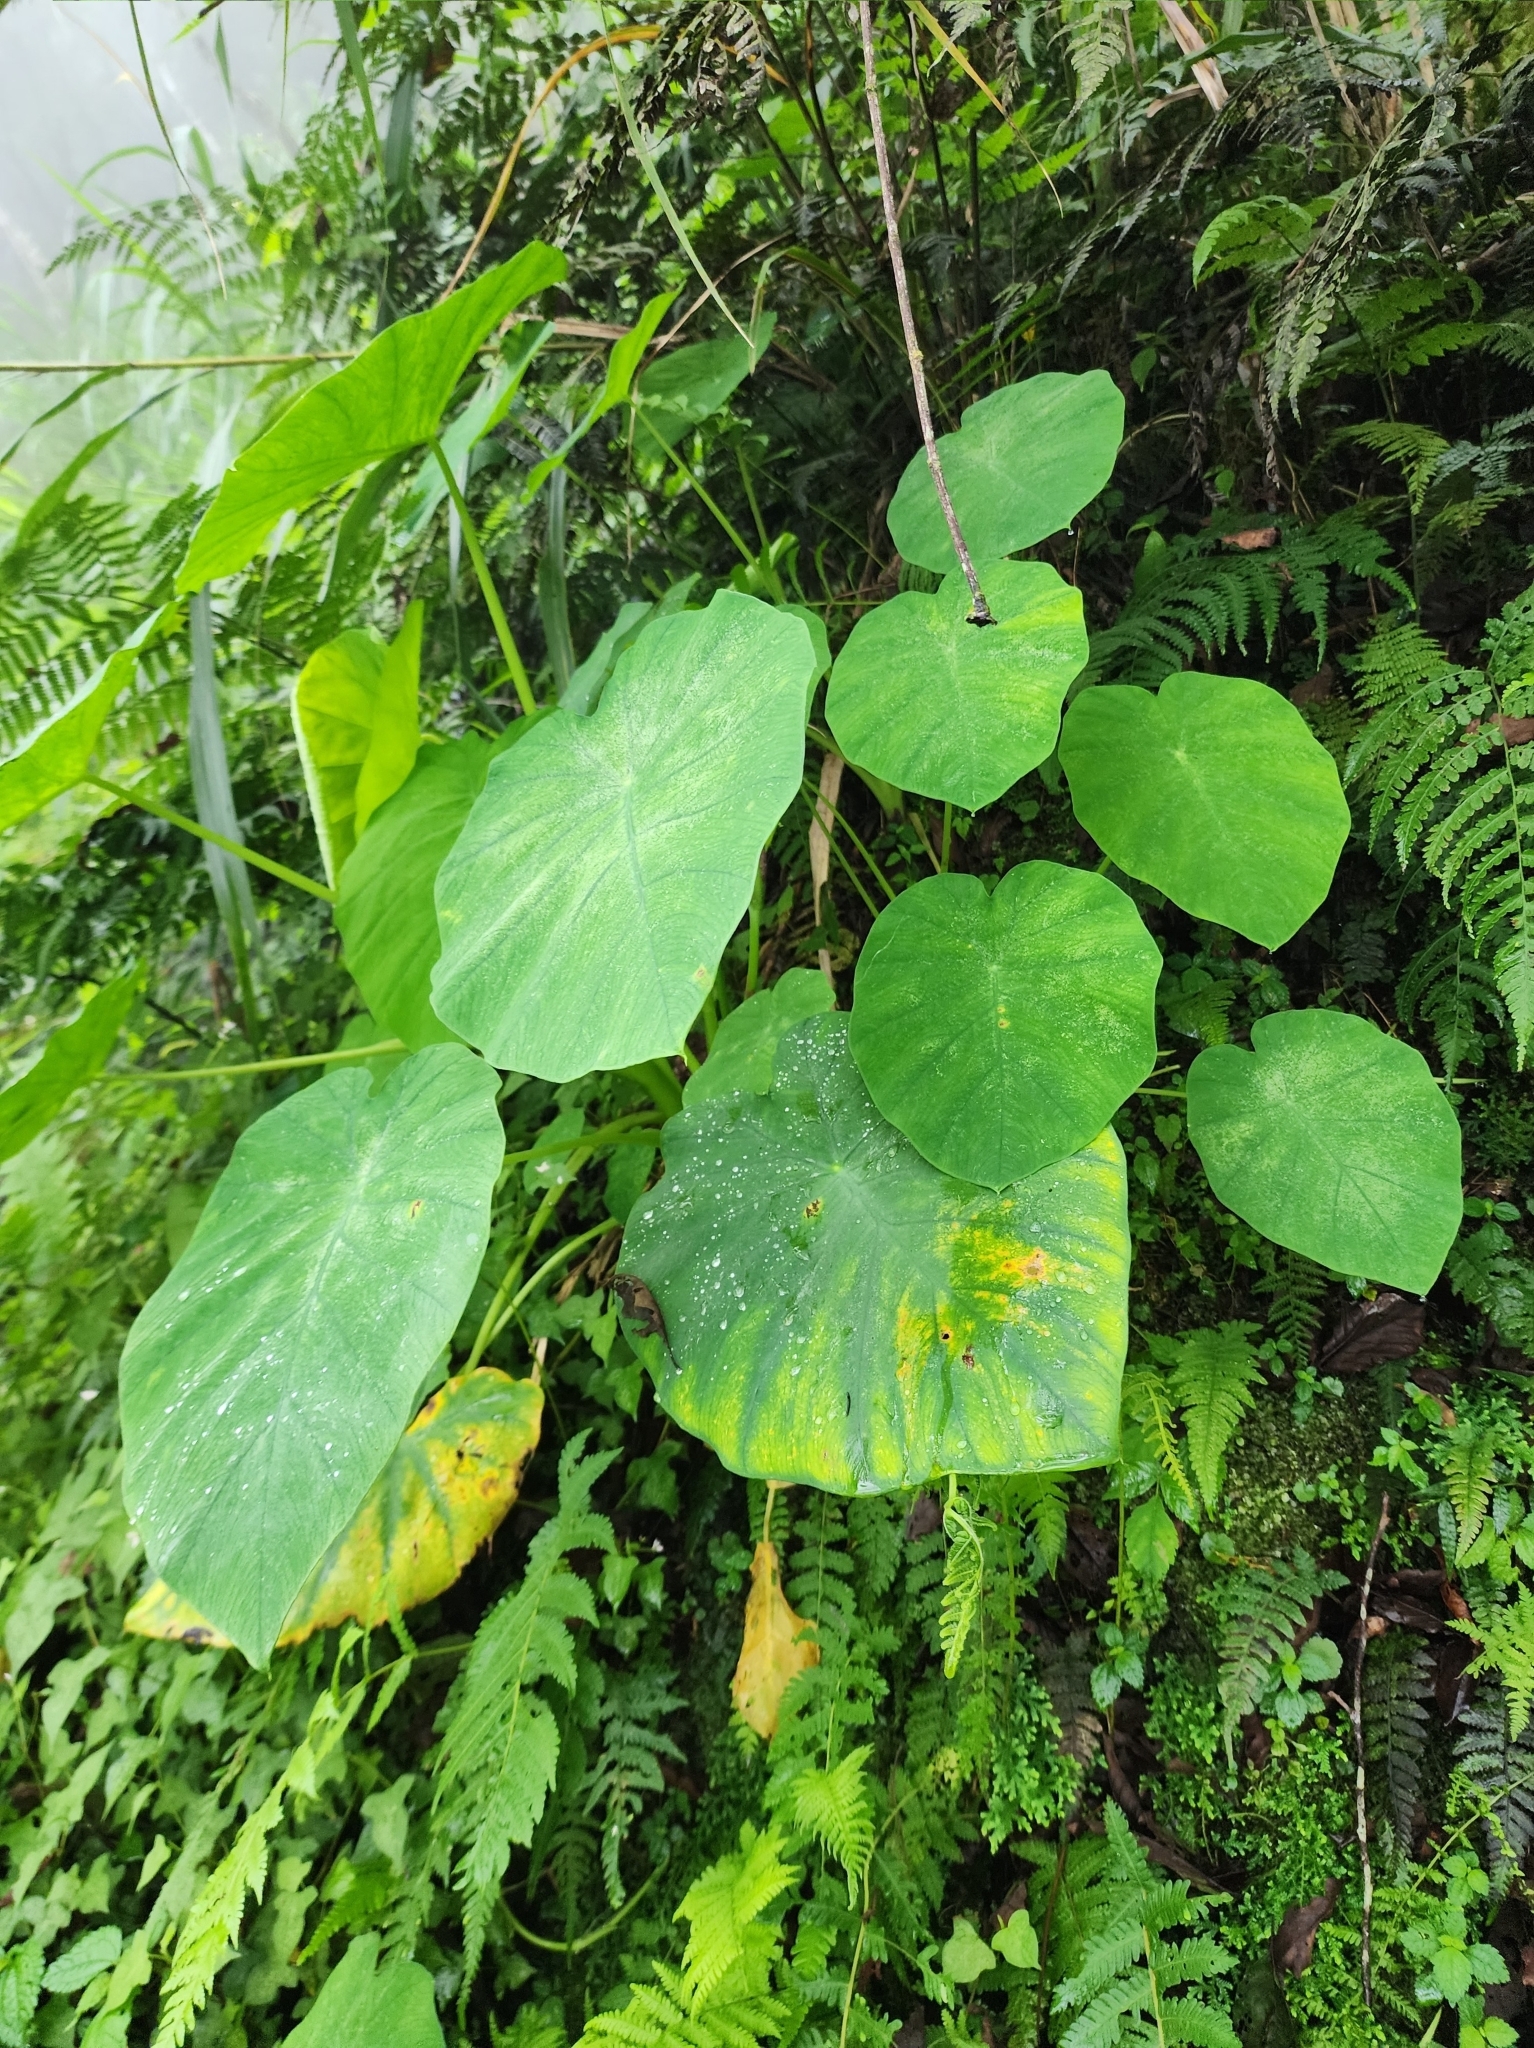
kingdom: Plantae
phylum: Tracheophyta
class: Liliopsida
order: Alismatales
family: Araceae
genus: Colocasia
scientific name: Colocasia esculenta
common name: Taro
